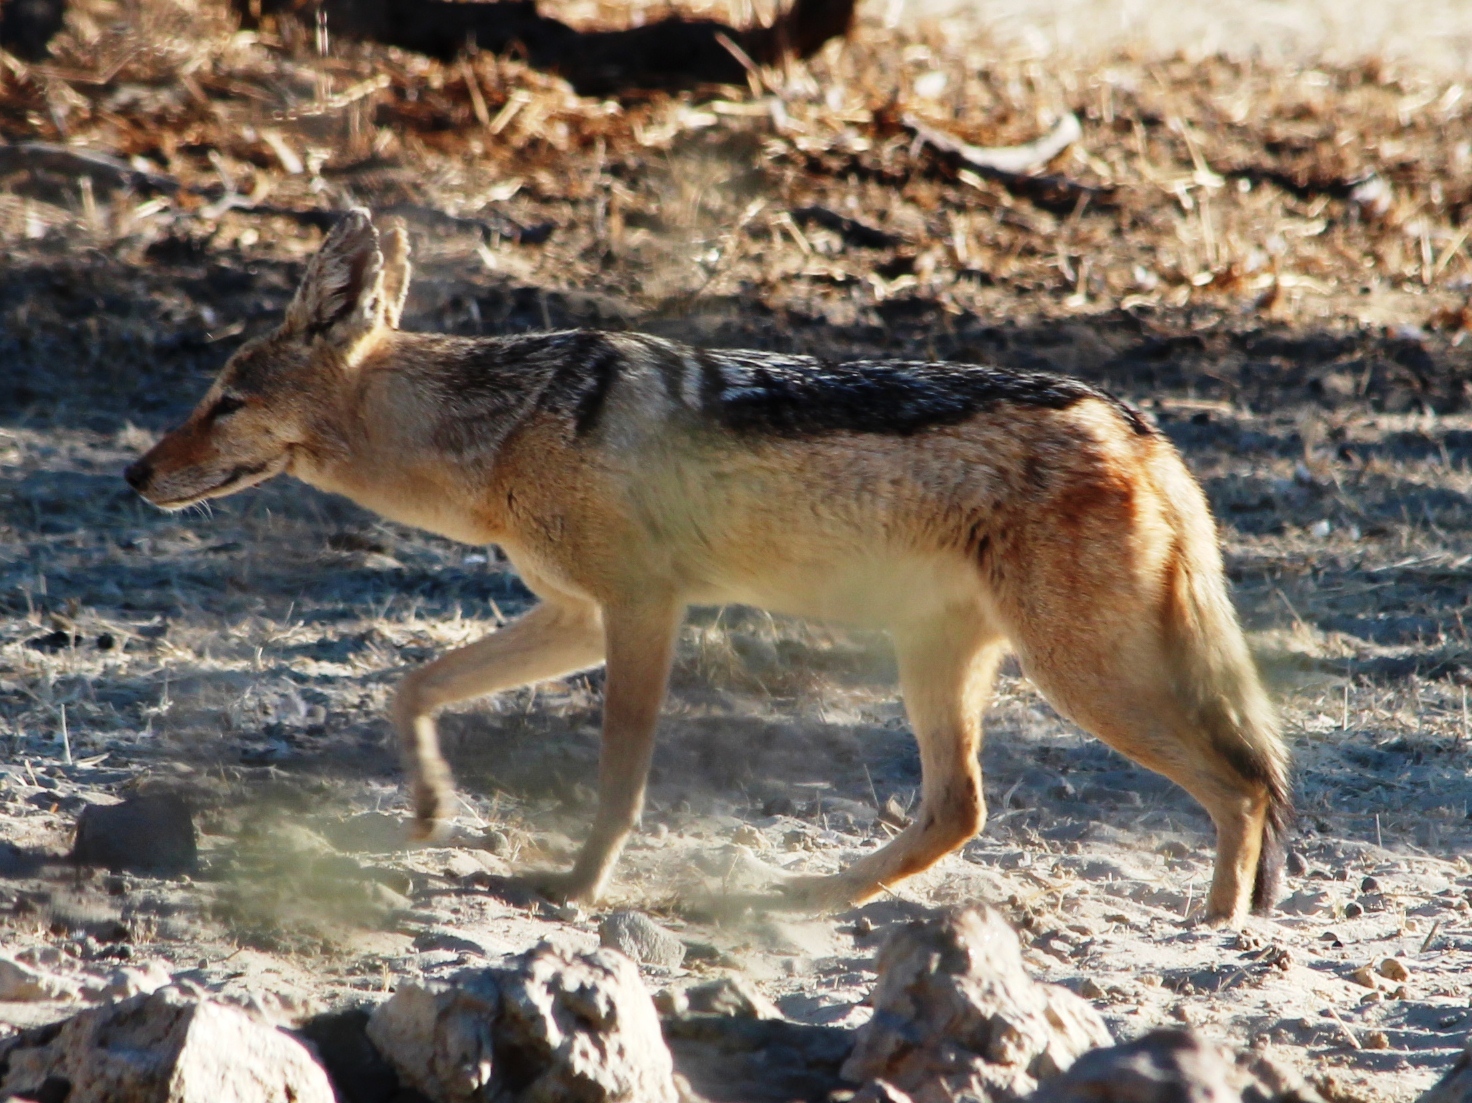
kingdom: Animalia
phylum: Chordata
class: Mammalia
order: Carnivora
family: Canidae
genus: Lupulella
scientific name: Lupulella
